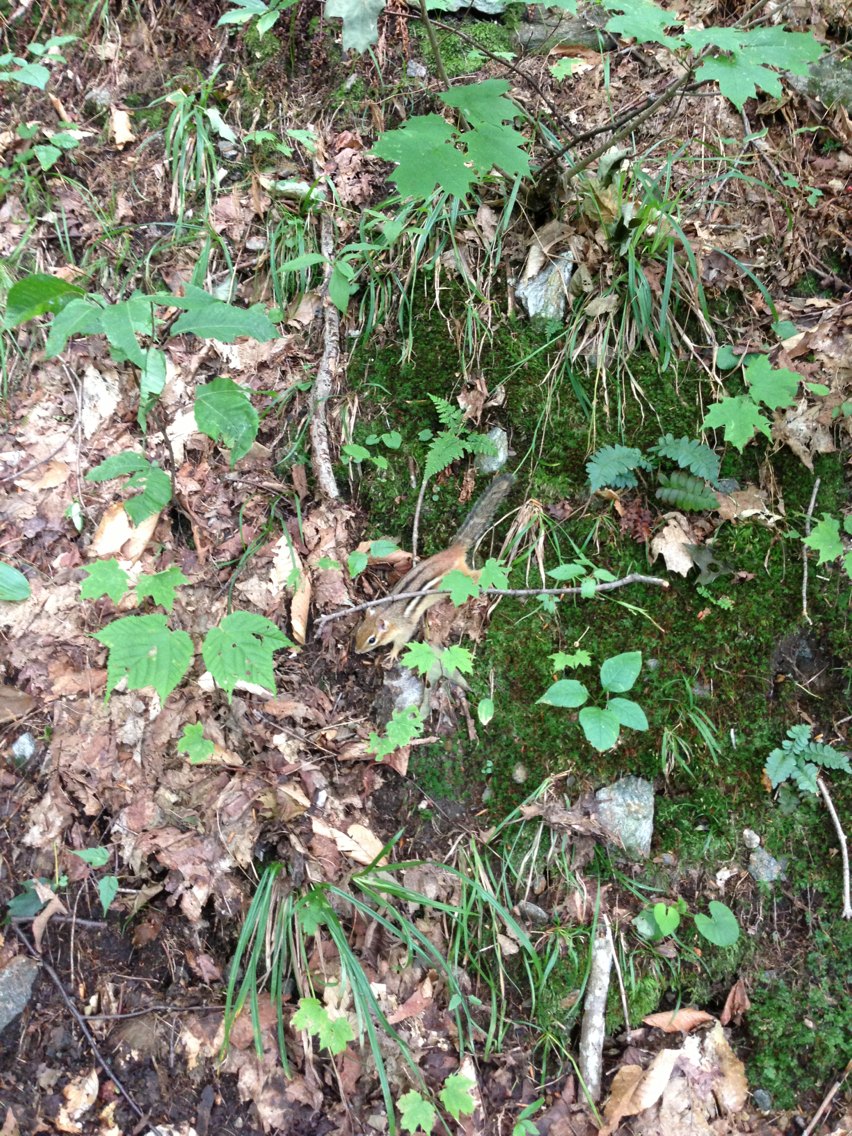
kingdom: Animalia
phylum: Chordata
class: Mammalia
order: Rodentia
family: Sciuridae
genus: Tamias
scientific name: Tamias striatus
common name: Eastern chipmunk
